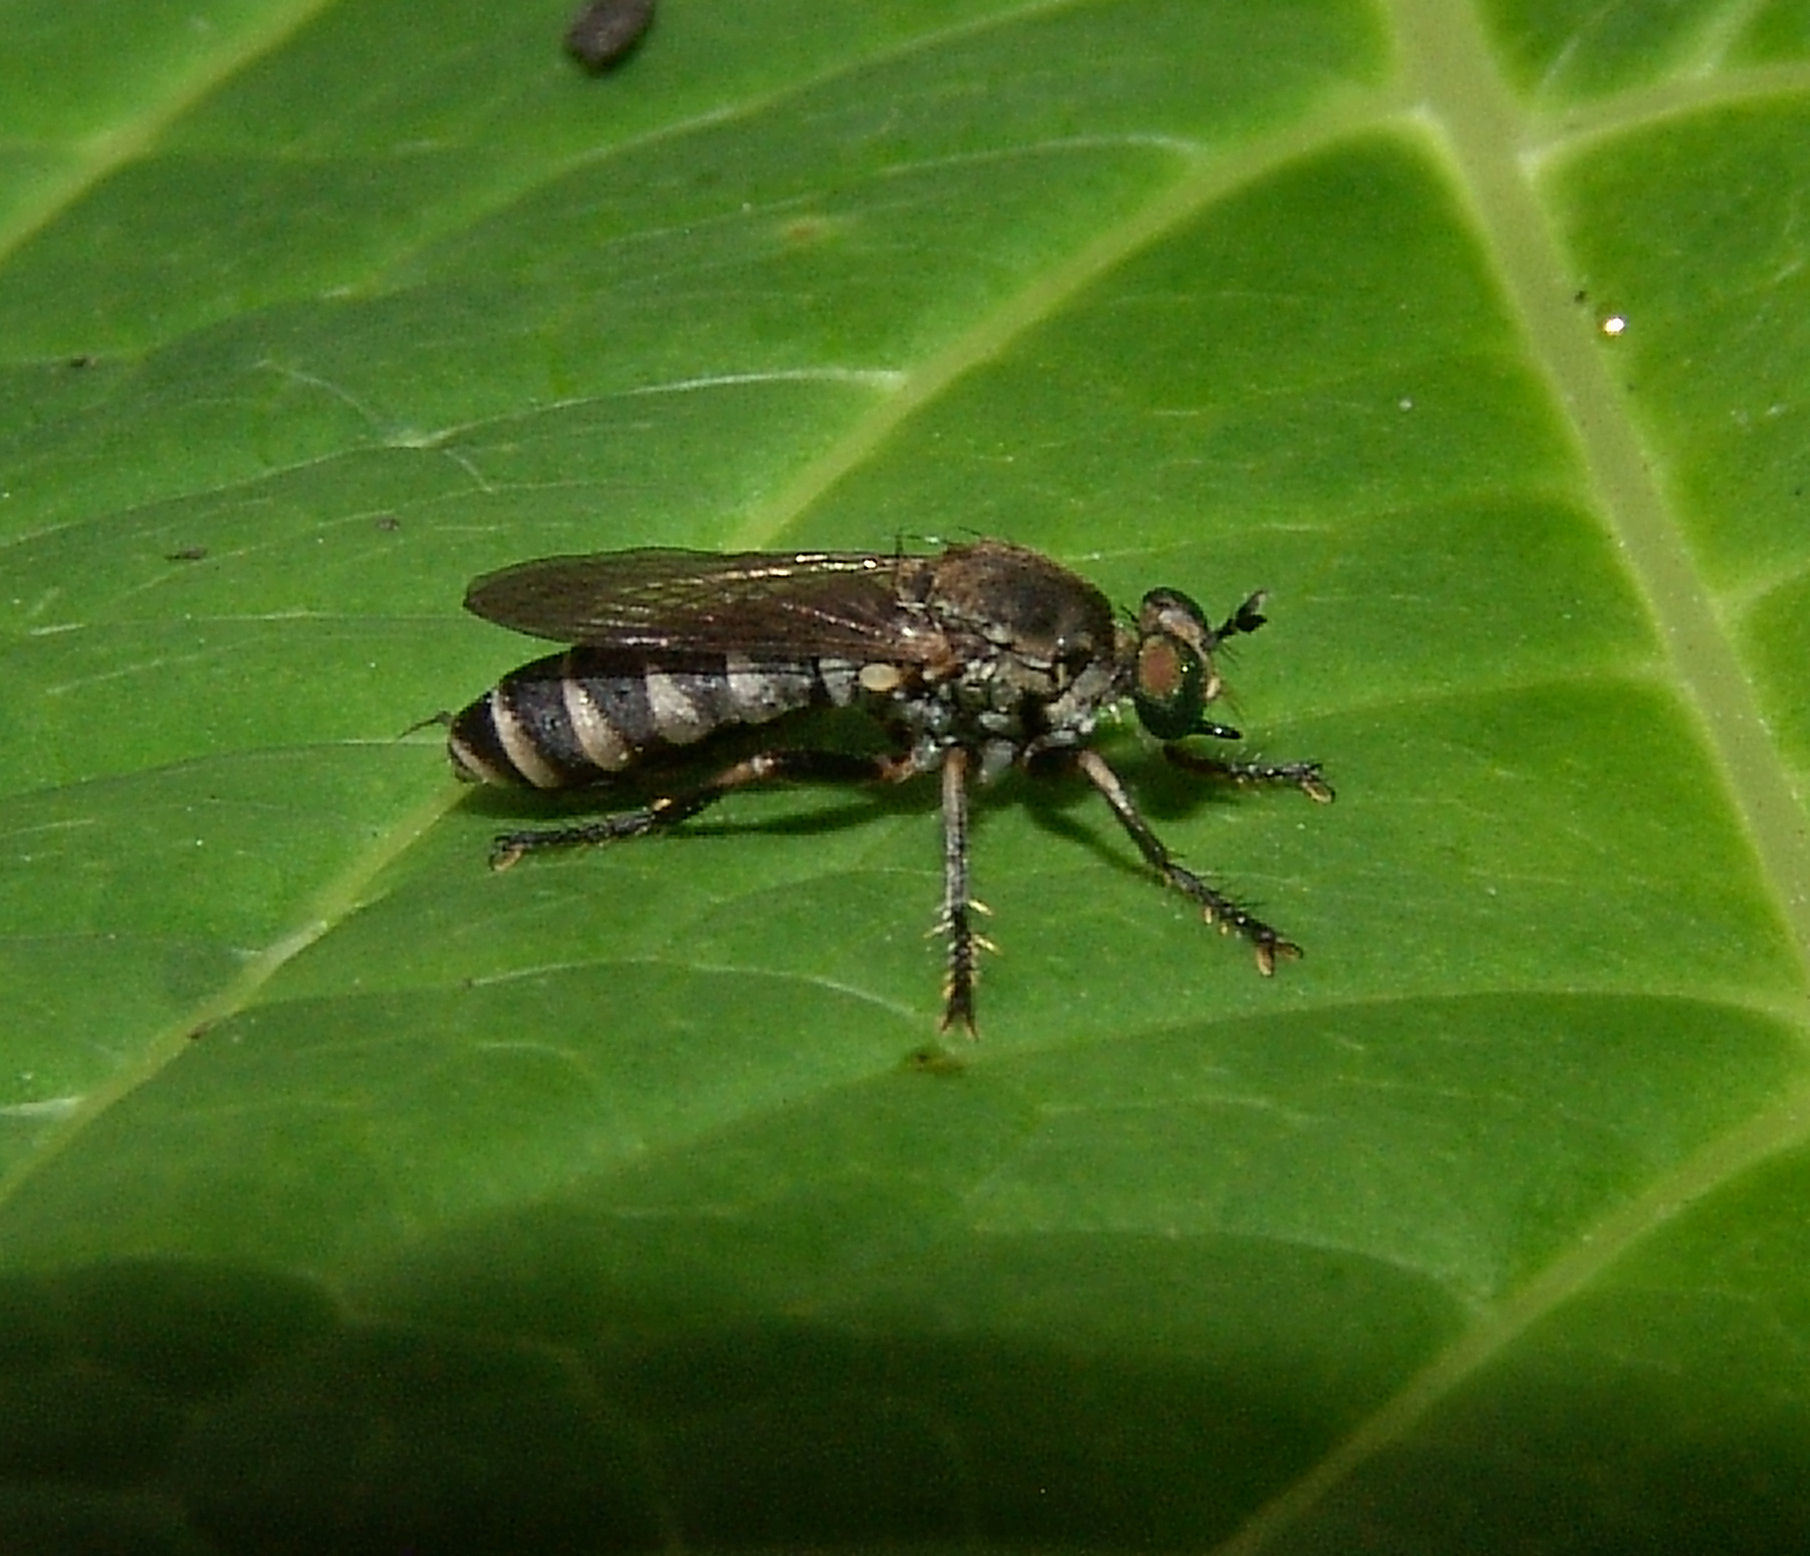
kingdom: Animalia
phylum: Arthropoda
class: Insecta
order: Diptera
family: Asilidae
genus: Psilocurus
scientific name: Psilocurus birdi
